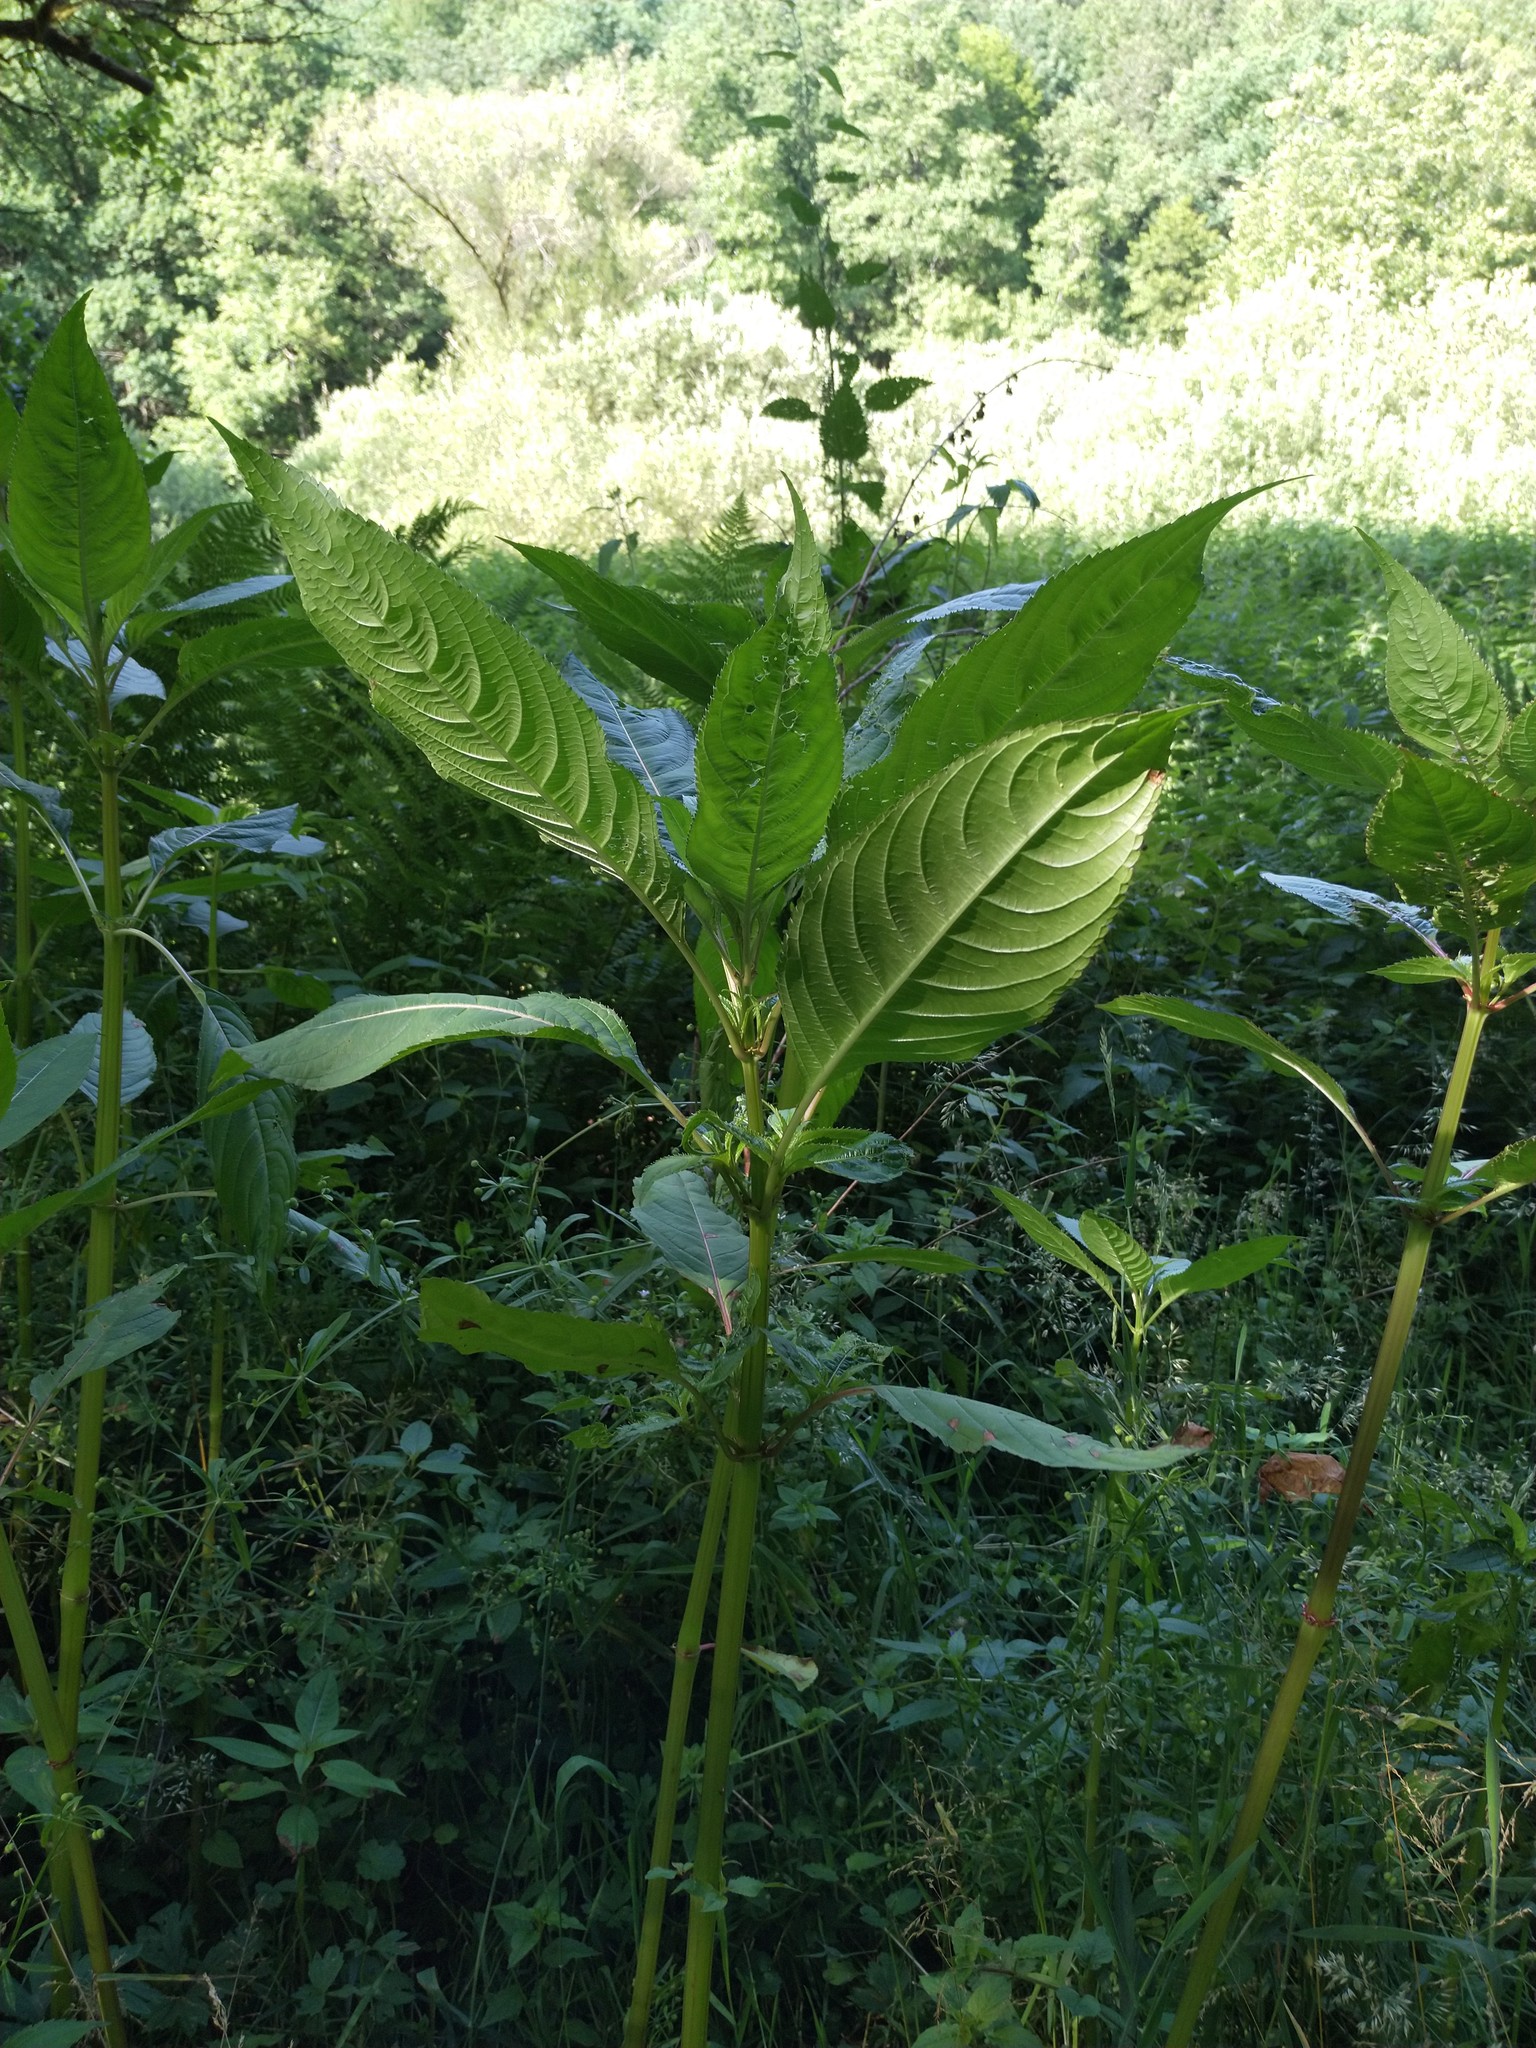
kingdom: Plantae
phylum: Tracheophyta
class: Magnoliopsida
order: Ericales
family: Balsaminaceae
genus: Impatiens
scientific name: Impatiens glandulifera
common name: Himalayan balsam
